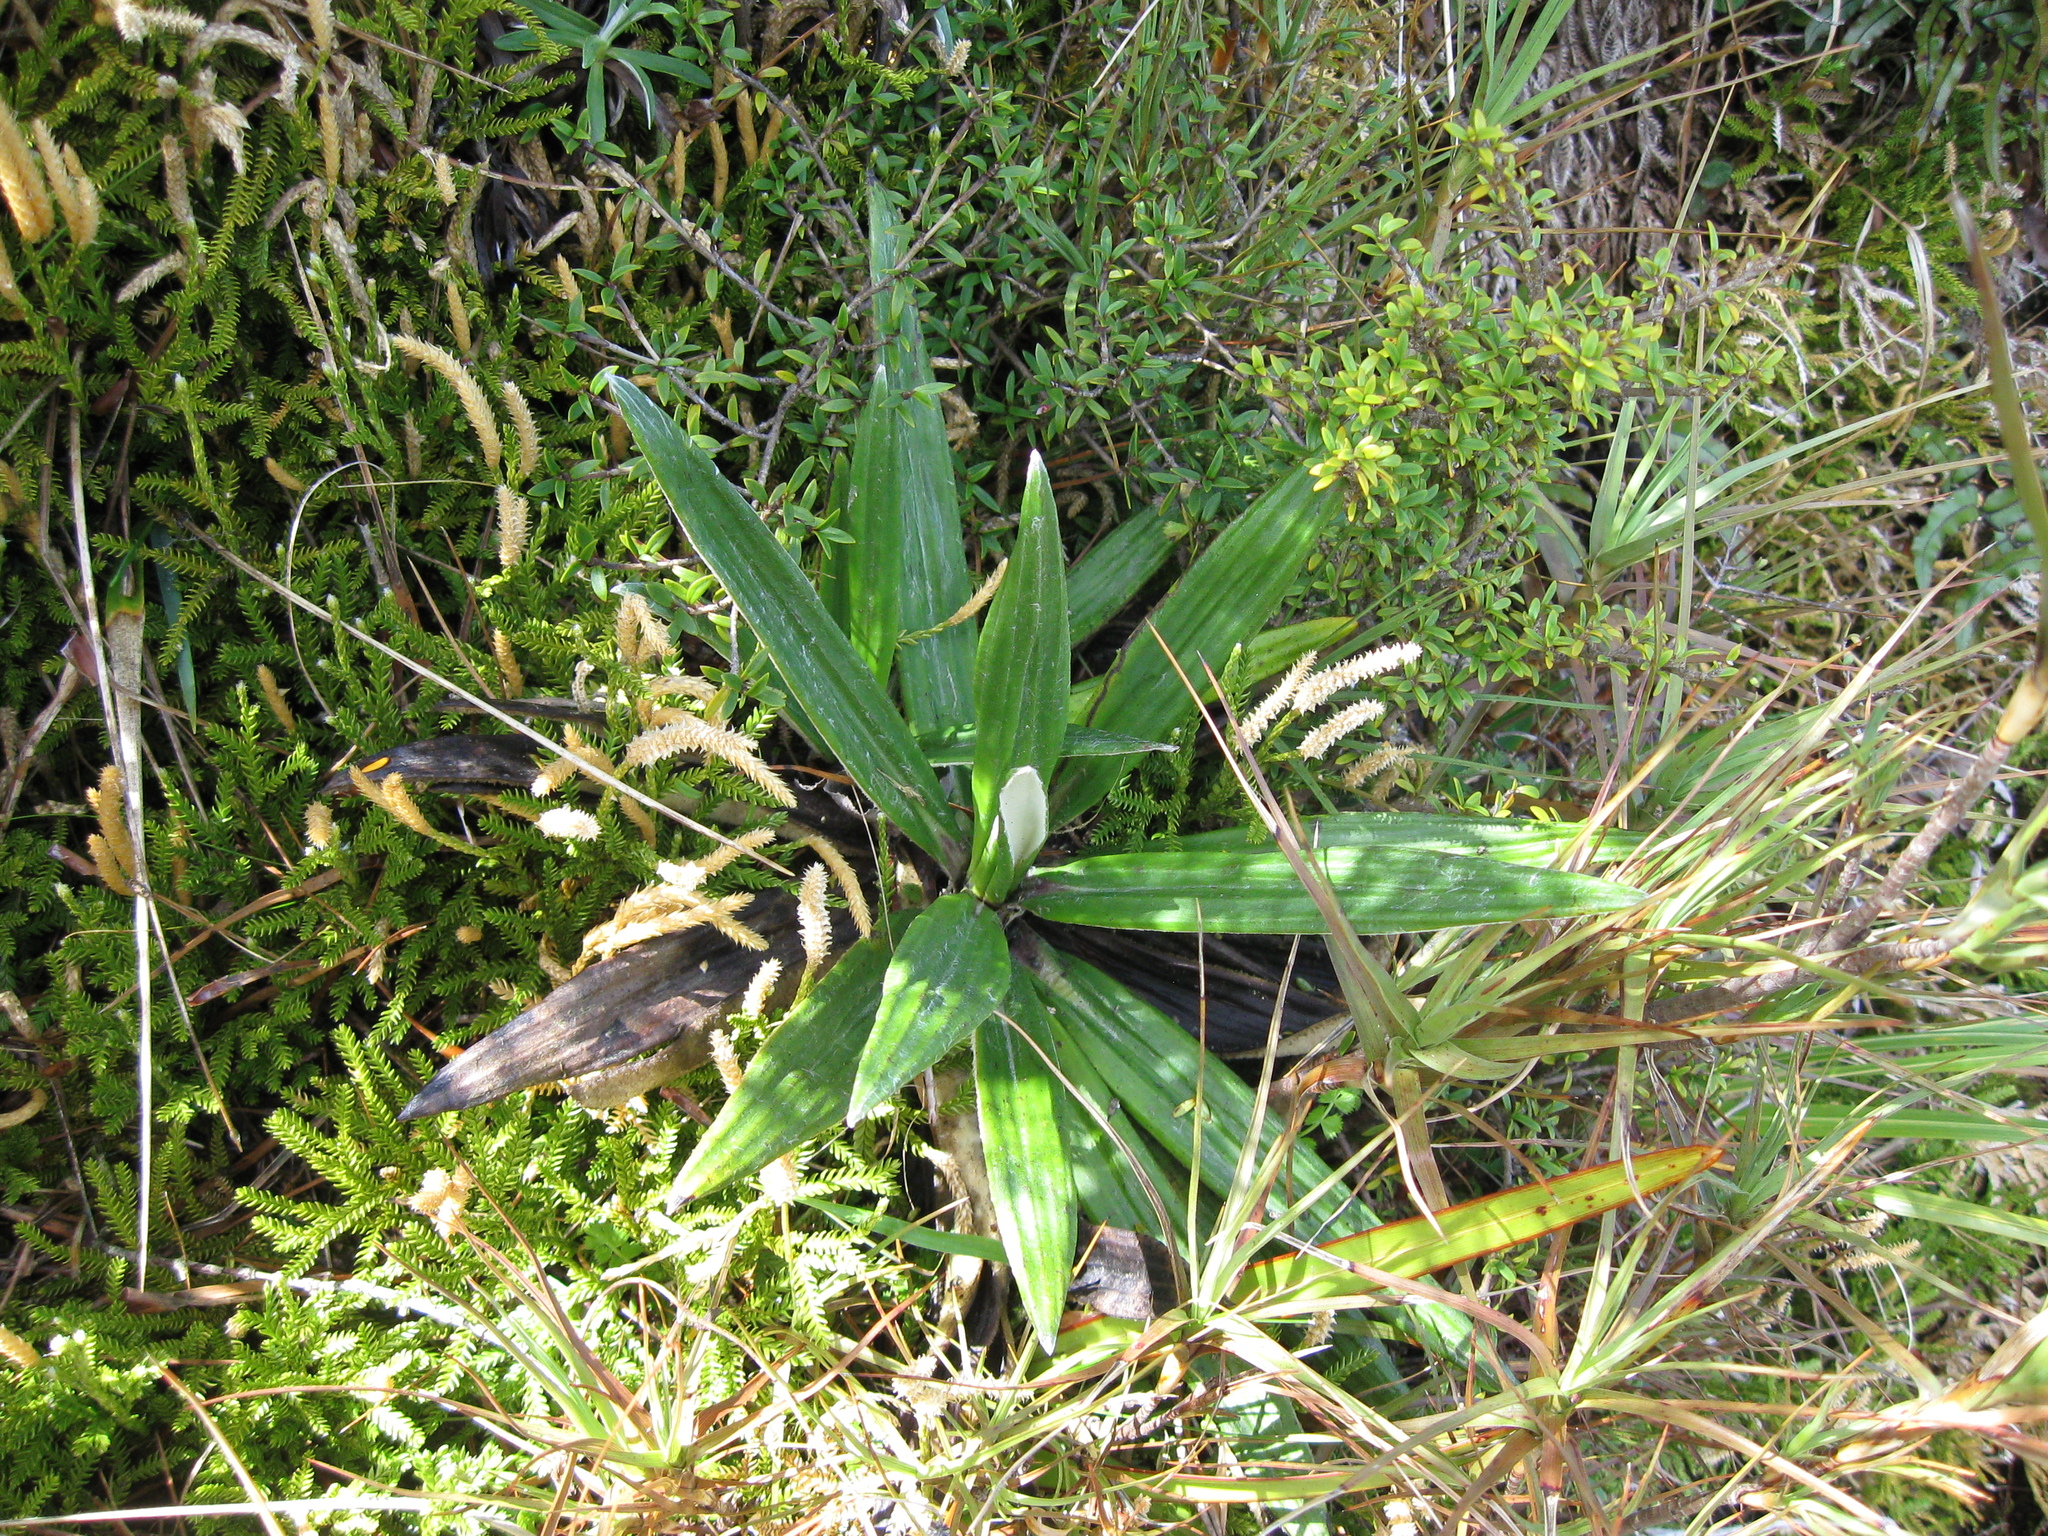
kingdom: Plantae
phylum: Tracheophyta
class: Magnoliopsida
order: Asterales
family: Asteraceae
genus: Celmisia
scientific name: Celmisia spectabilis
